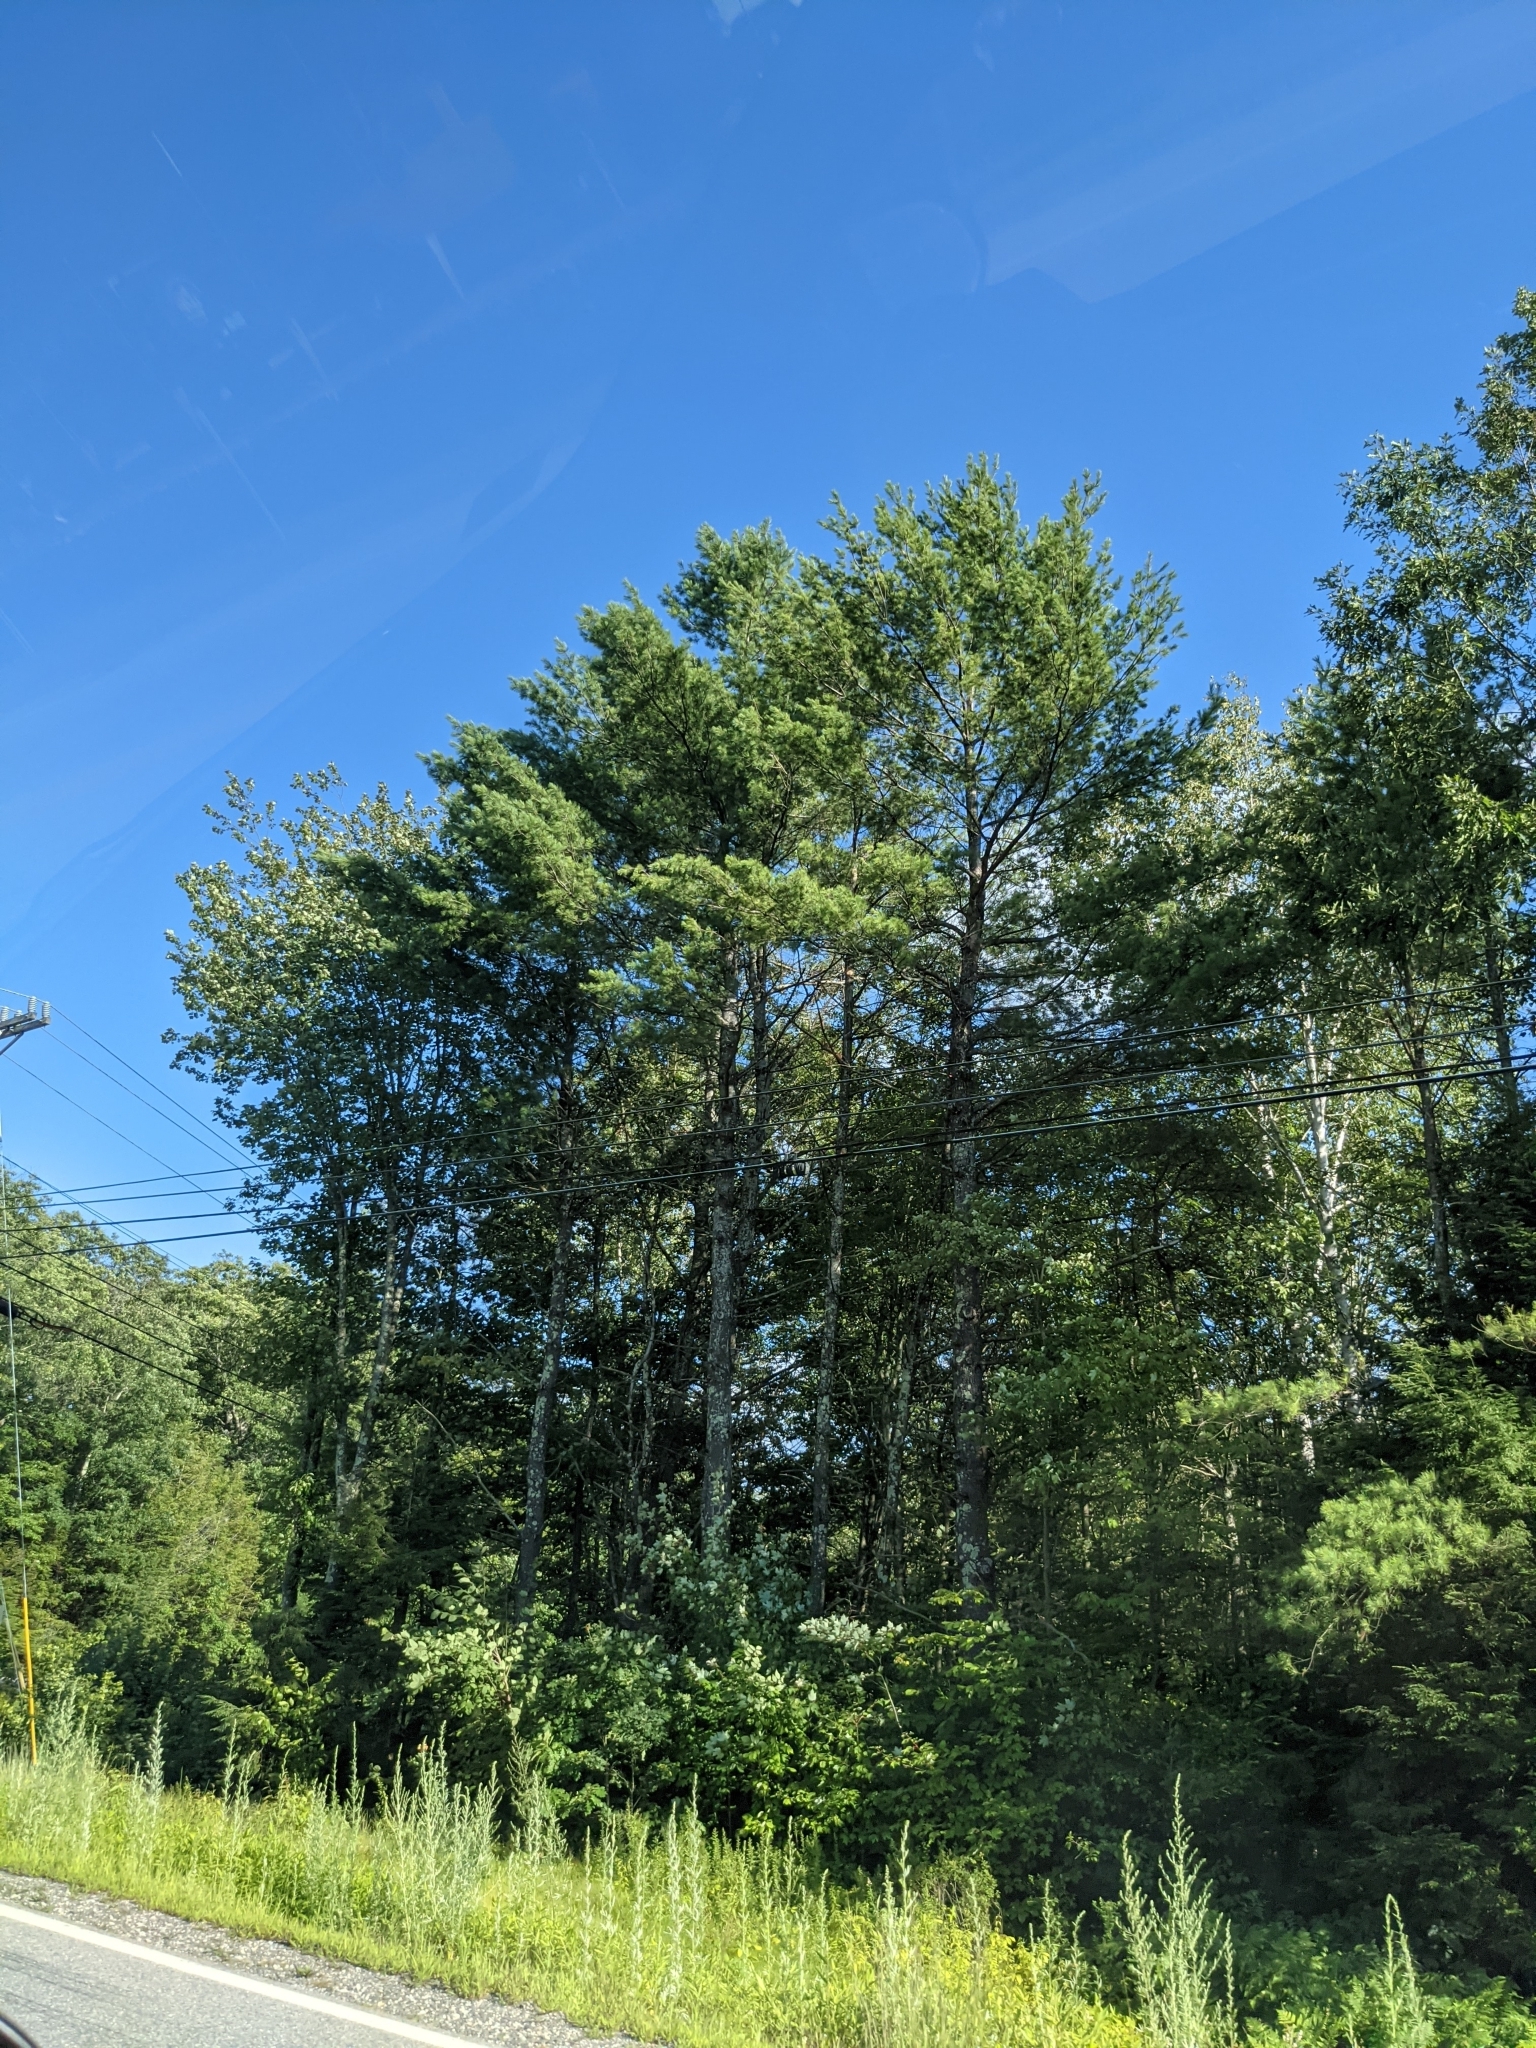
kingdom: Plantae
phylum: Tracheophyta
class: Pinopsida
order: Pinales
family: Pinaceae
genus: Pinus
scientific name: Pinus strobus
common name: Weymouth pine
